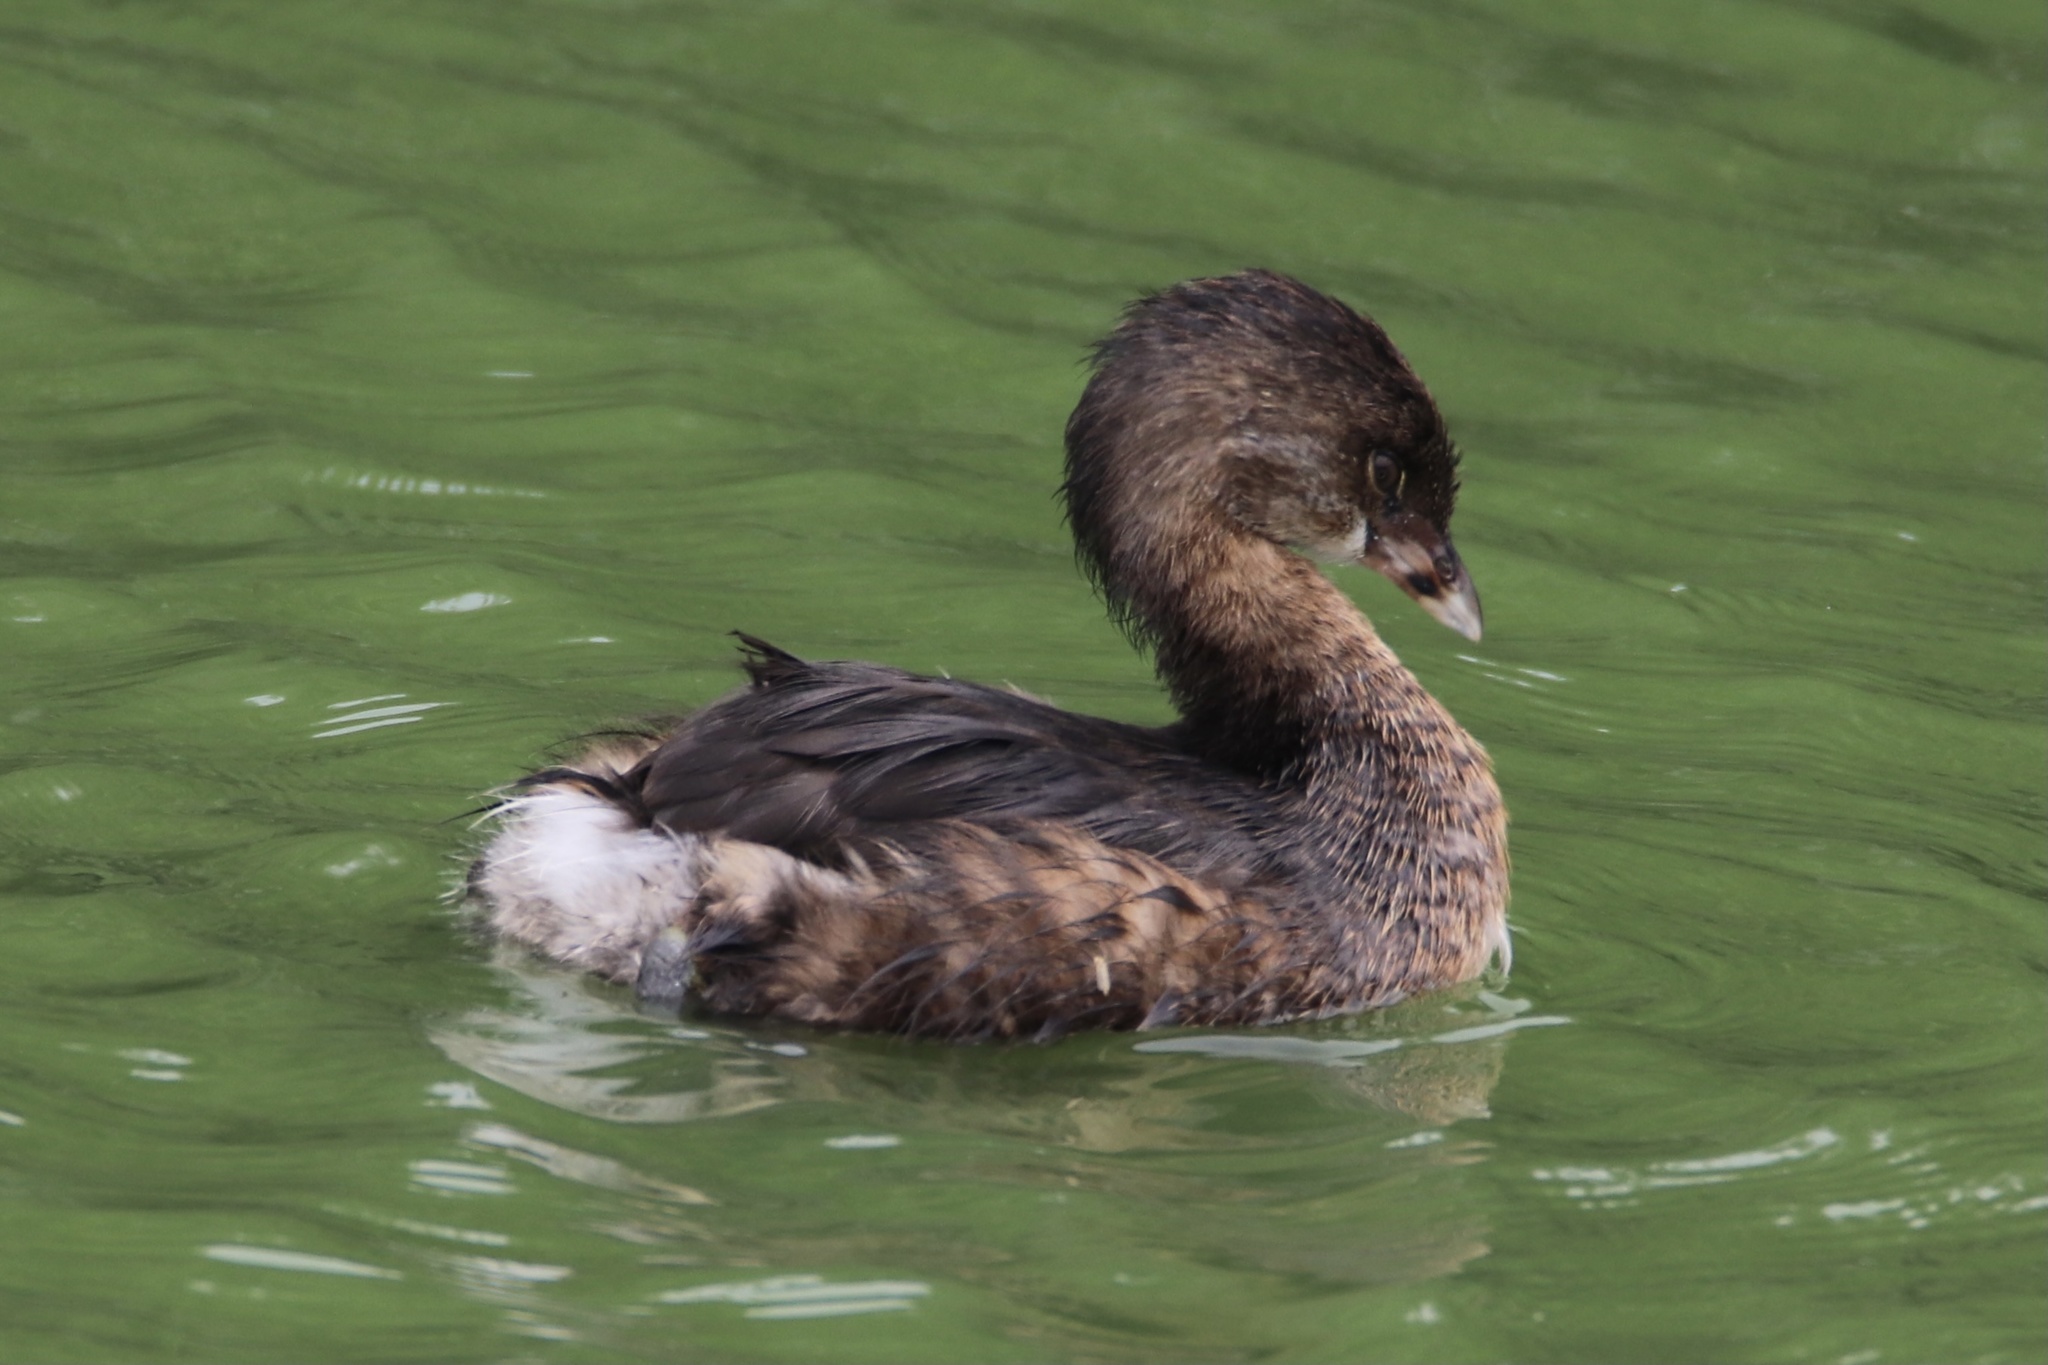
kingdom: Animalia
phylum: Chordata
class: Aves
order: Podicipediformes
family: Podicipedidae
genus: Podilymbus
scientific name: Podilymbus podiceps
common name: Pied-billed grebe
